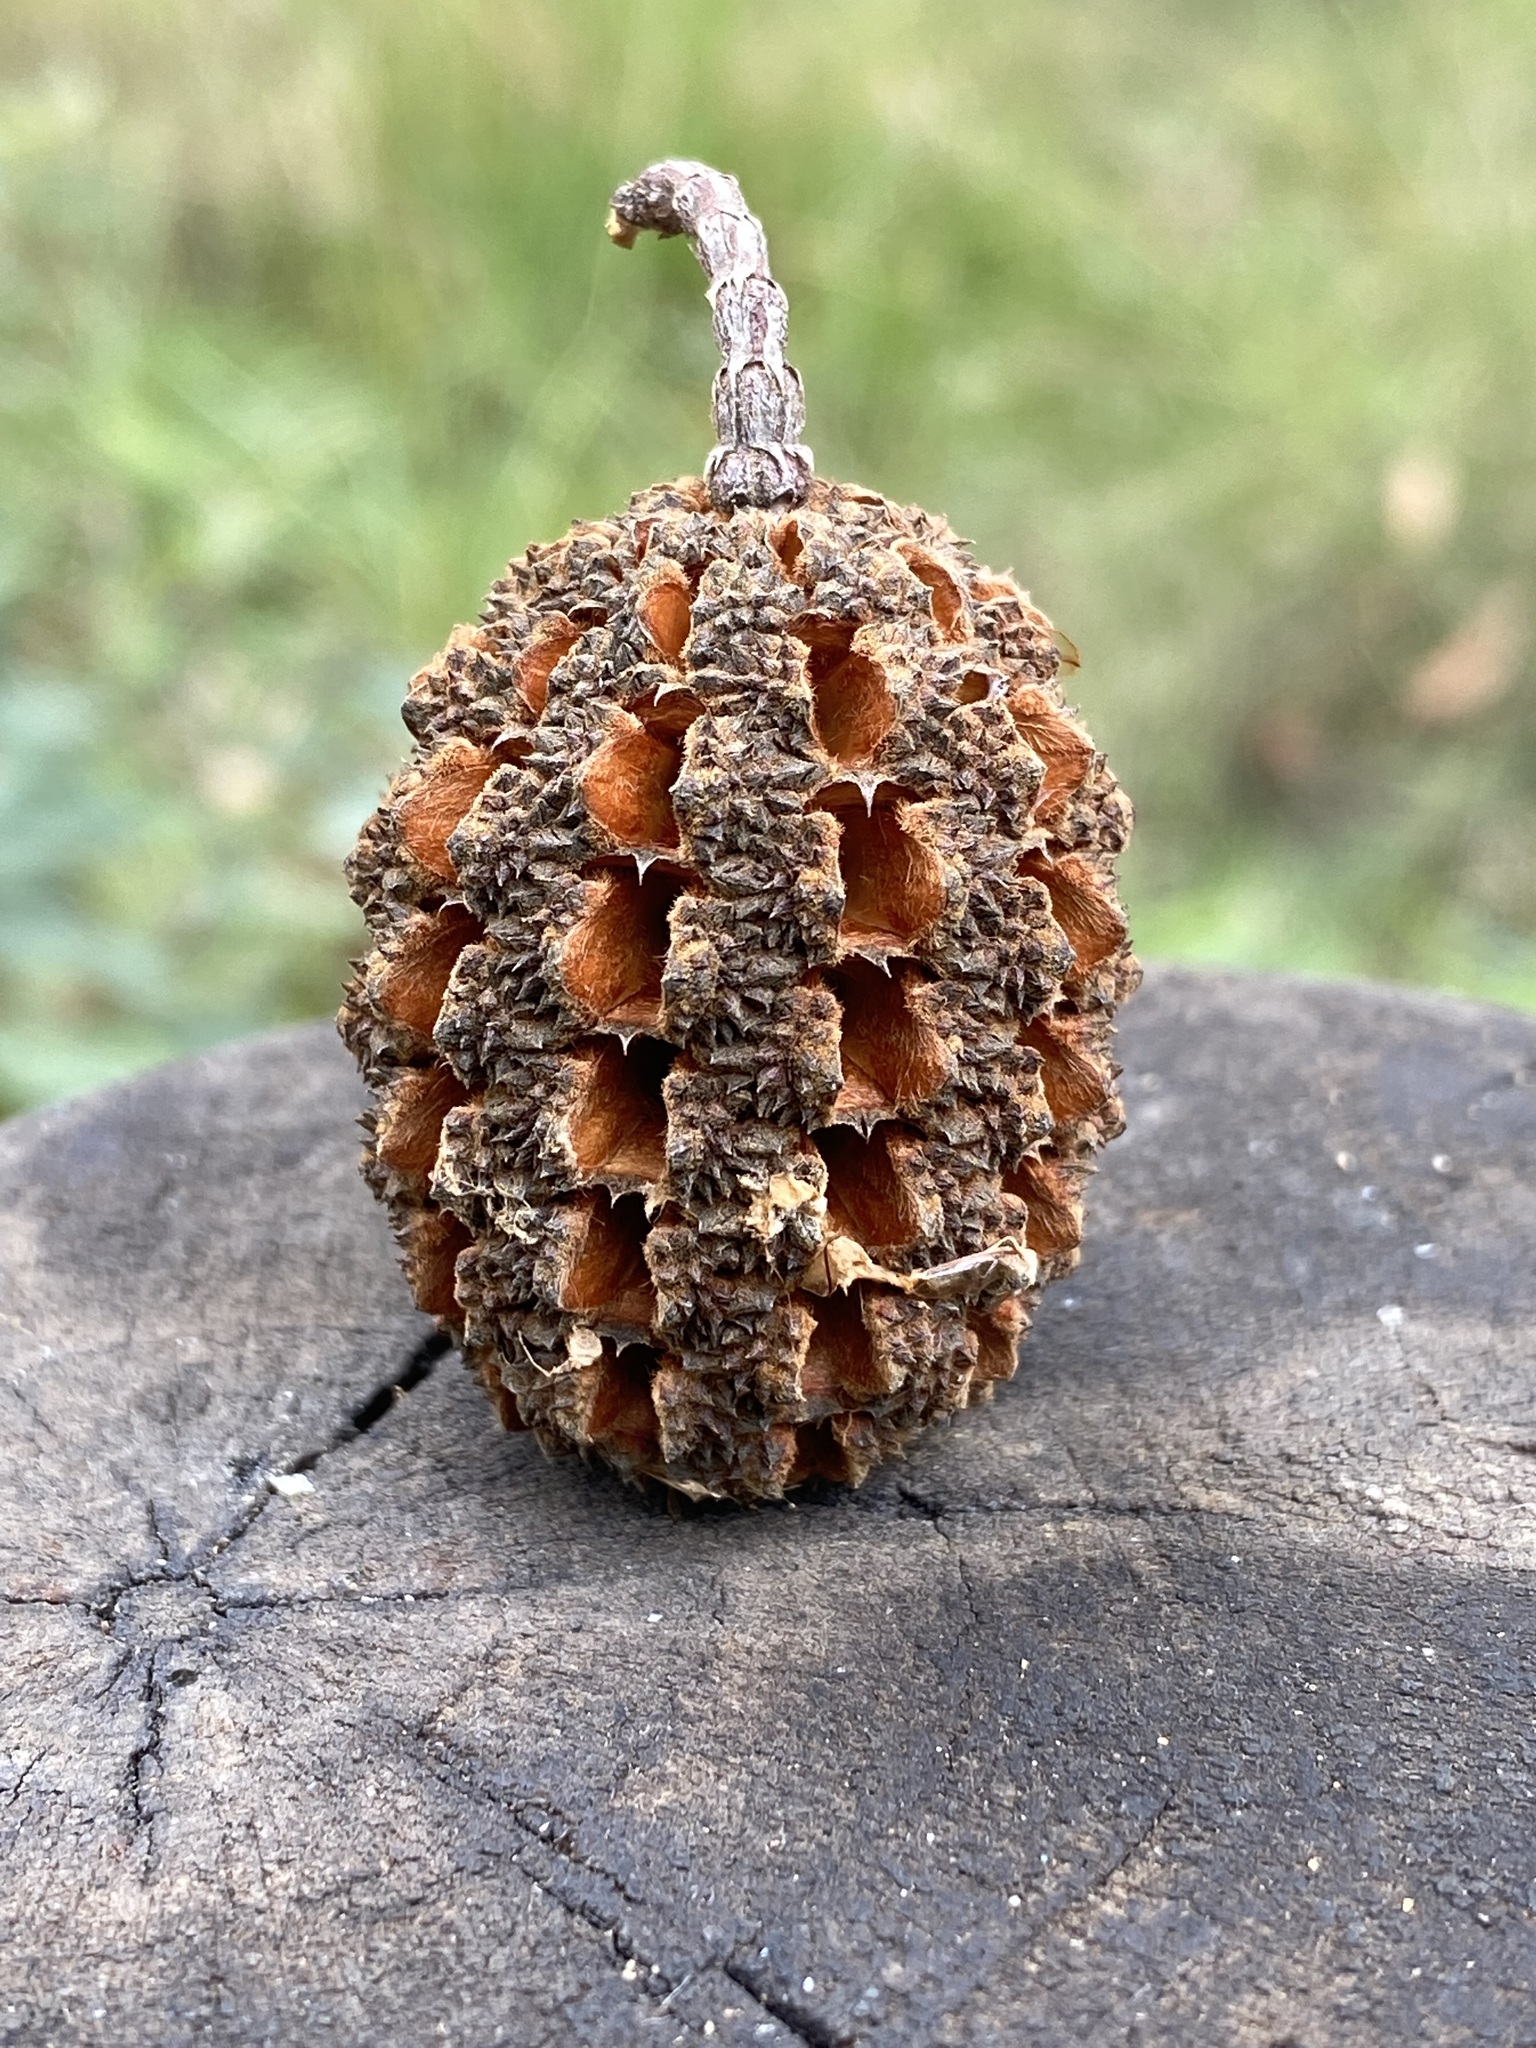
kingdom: Plantae
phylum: Tracheophyta
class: Magnoliopsida
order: Fagales
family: Casuarinaceae
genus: Allocasuarina
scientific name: Allocasuarina torulosa
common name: Forest-oak
